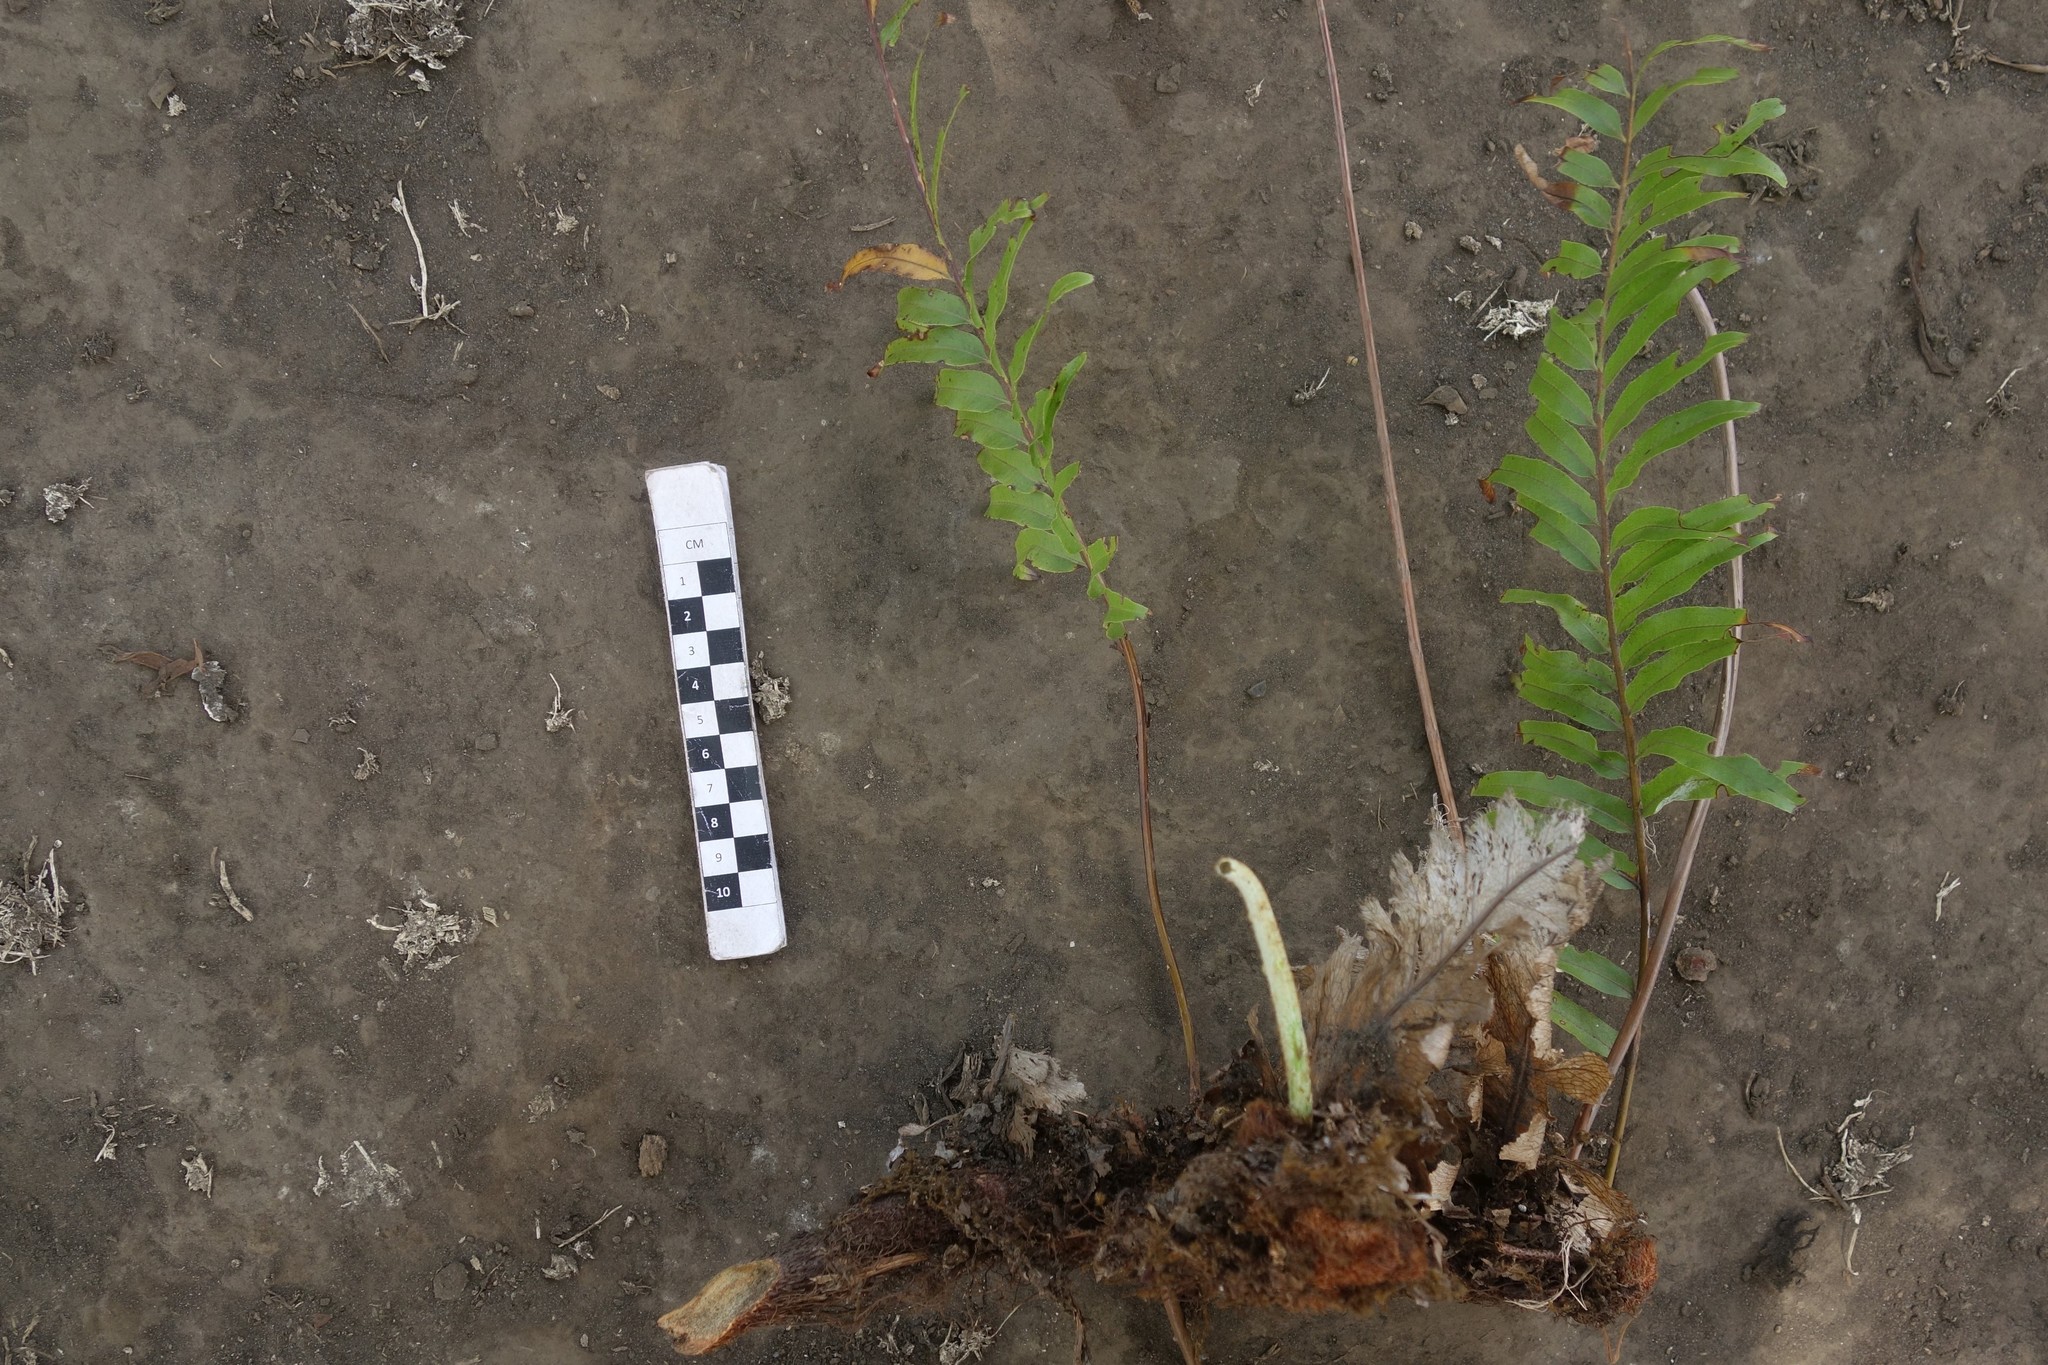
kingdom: Plantae
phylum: Tracheophyta
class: Polypodiopsida
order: Polypodiales
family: Polypodiaceae
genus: Drynaria
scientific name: Drynaria rigidula
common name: Basket fern
